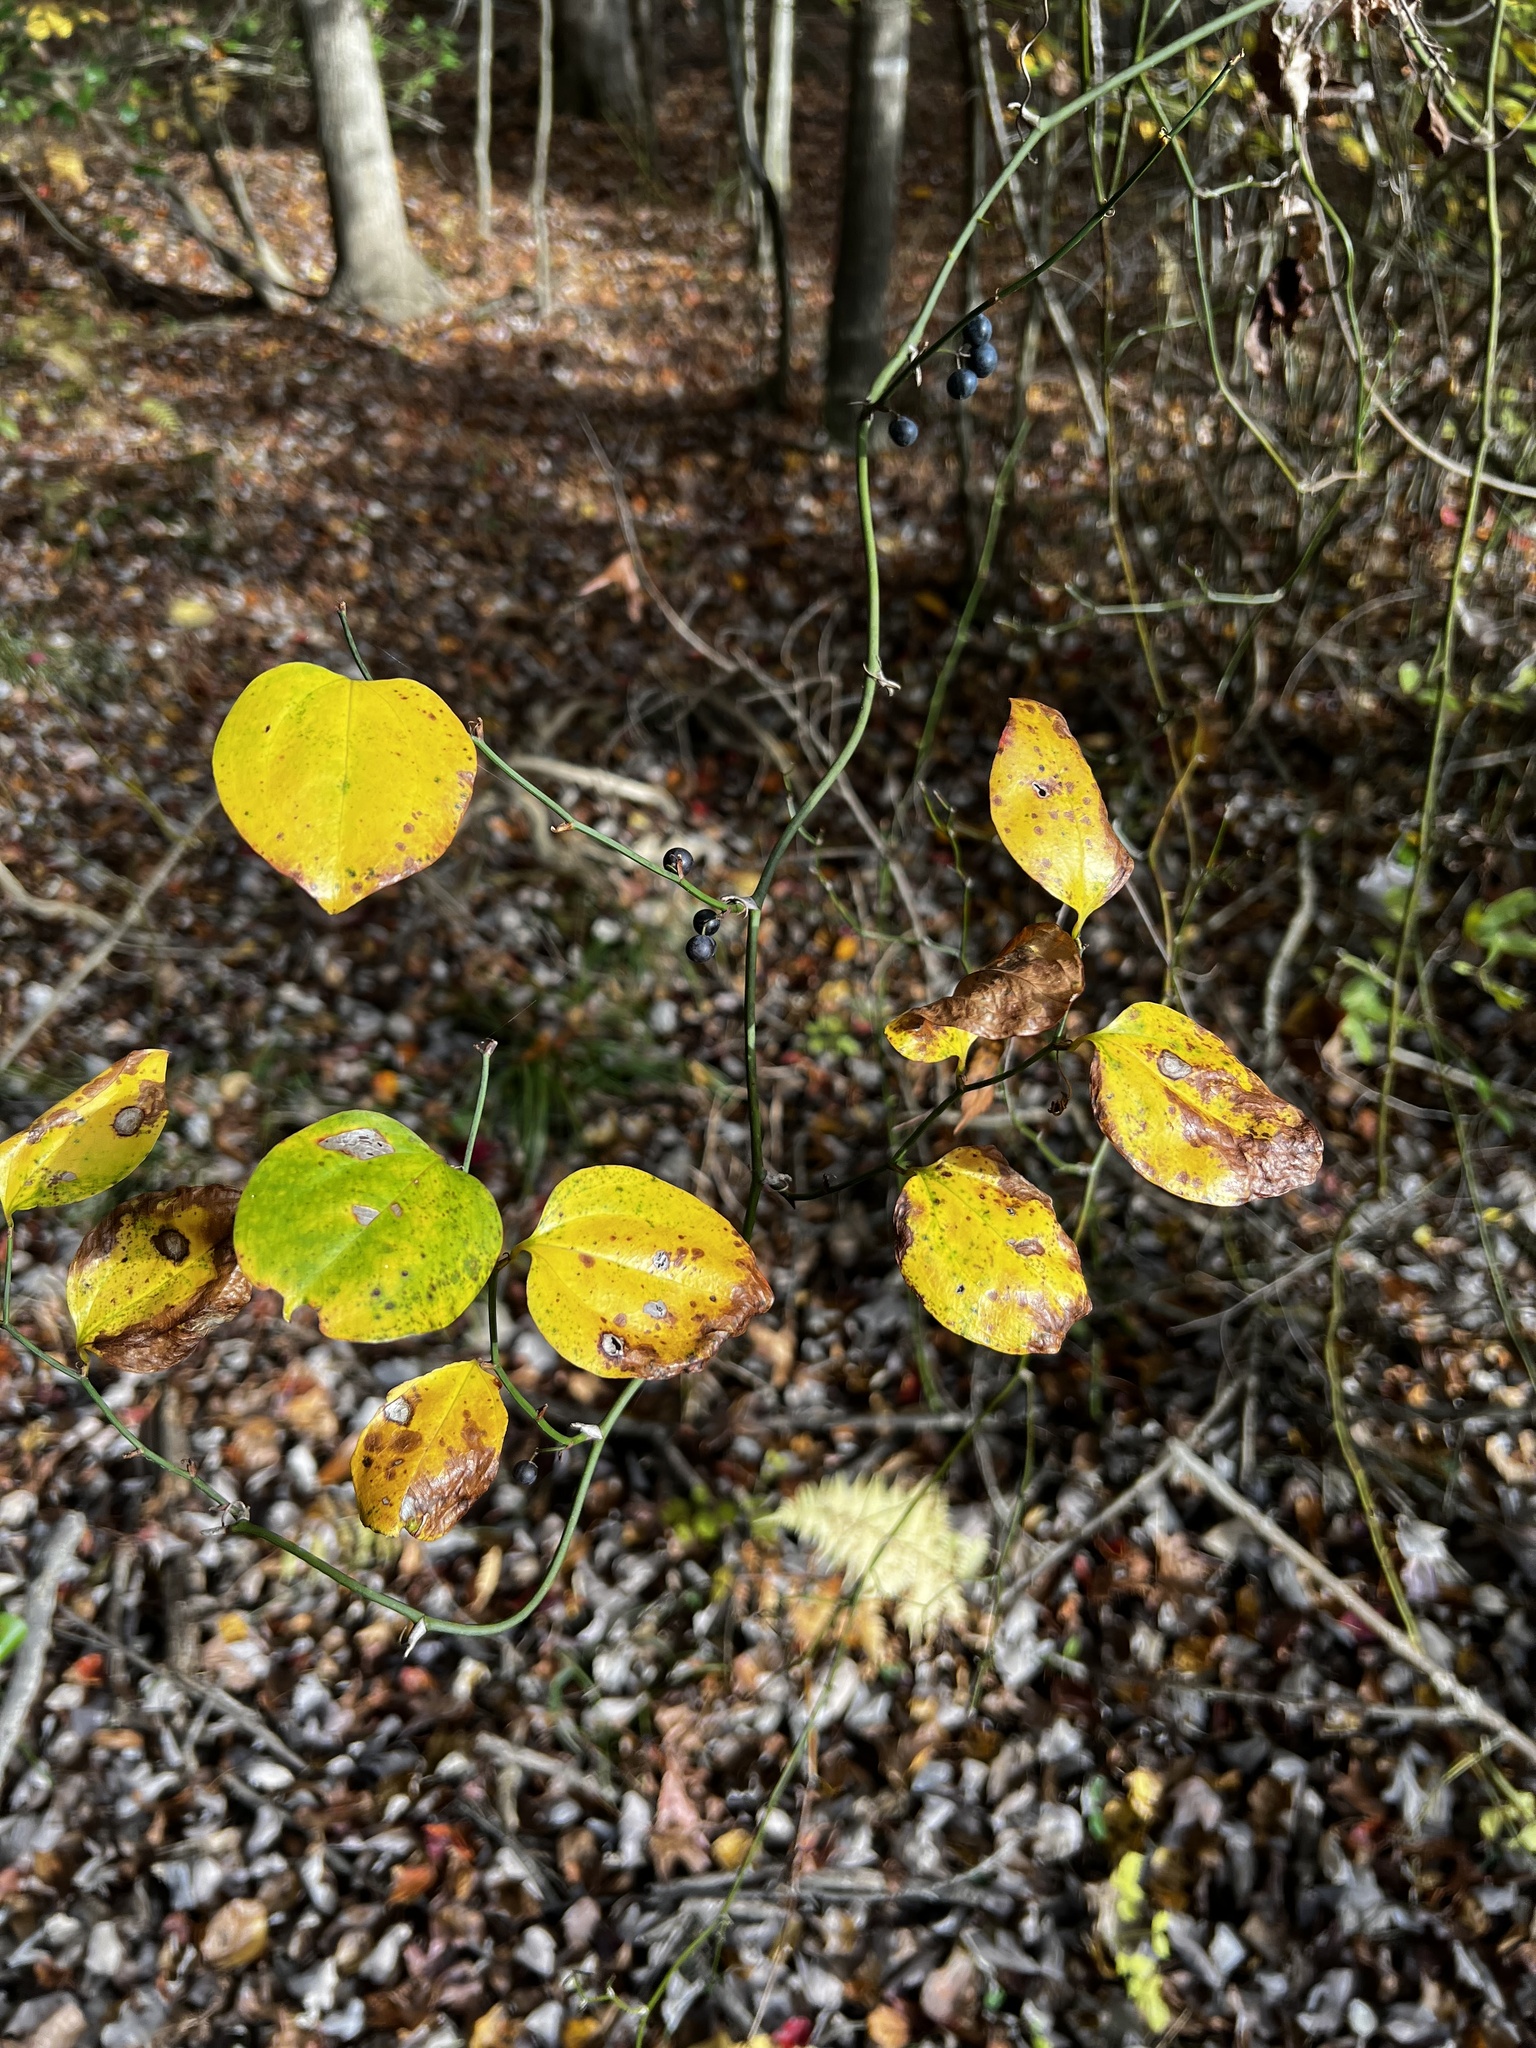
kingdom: Plantae
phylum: Tracheophyta
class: Liliopsida
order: Liliales
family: Smilacaceae
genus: Smilax
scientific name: Smilax rotundifolia
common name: Bullbriar
